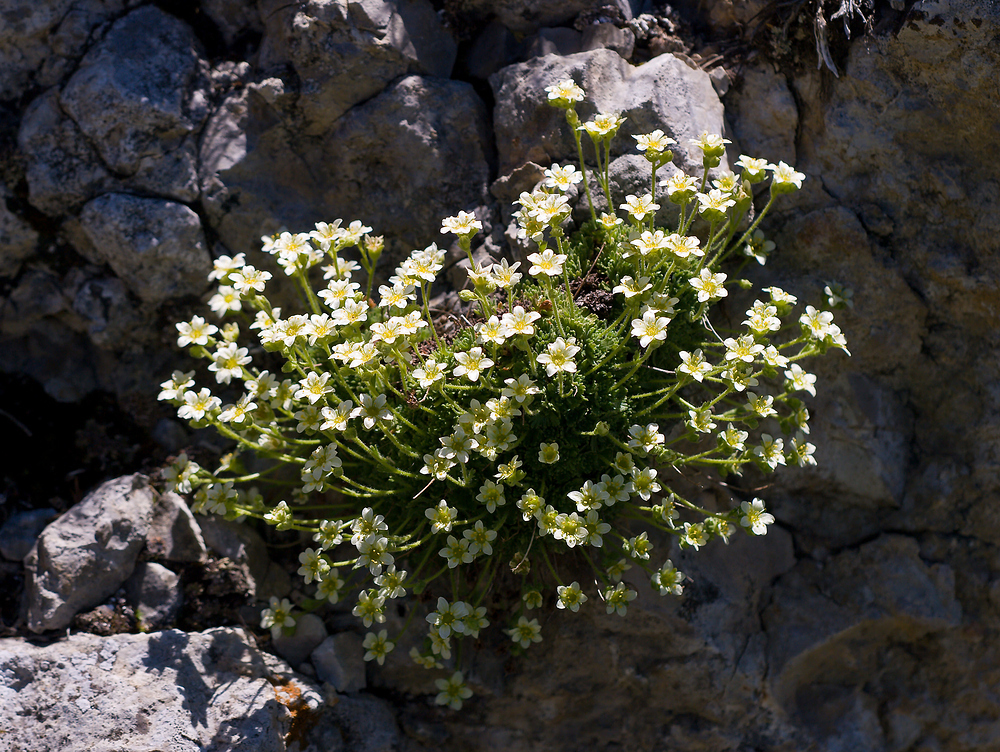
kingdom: Plantae
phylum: Tracheophyta
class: Magnoliopsida
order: Saxifragales
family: Saxifragaceae
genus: Saxifraga
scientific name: Saxifraga exarata
